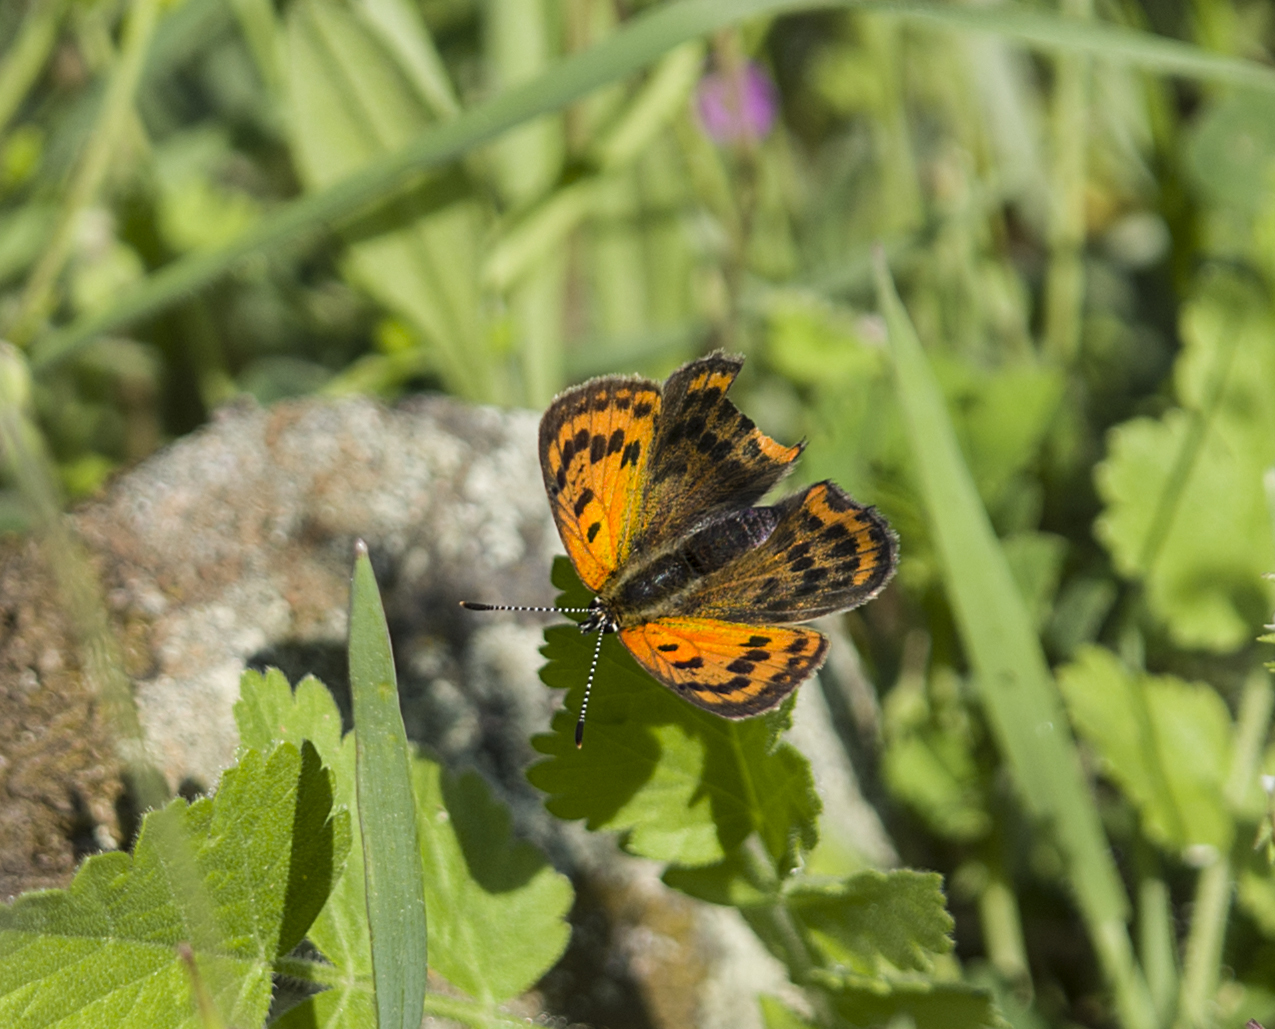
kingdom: Animalia
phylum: Arthropoda
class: Insecta
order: Lepidoptera
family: Lycaenidae
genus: Polyommatus
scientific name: Polyommatus ottomanus
